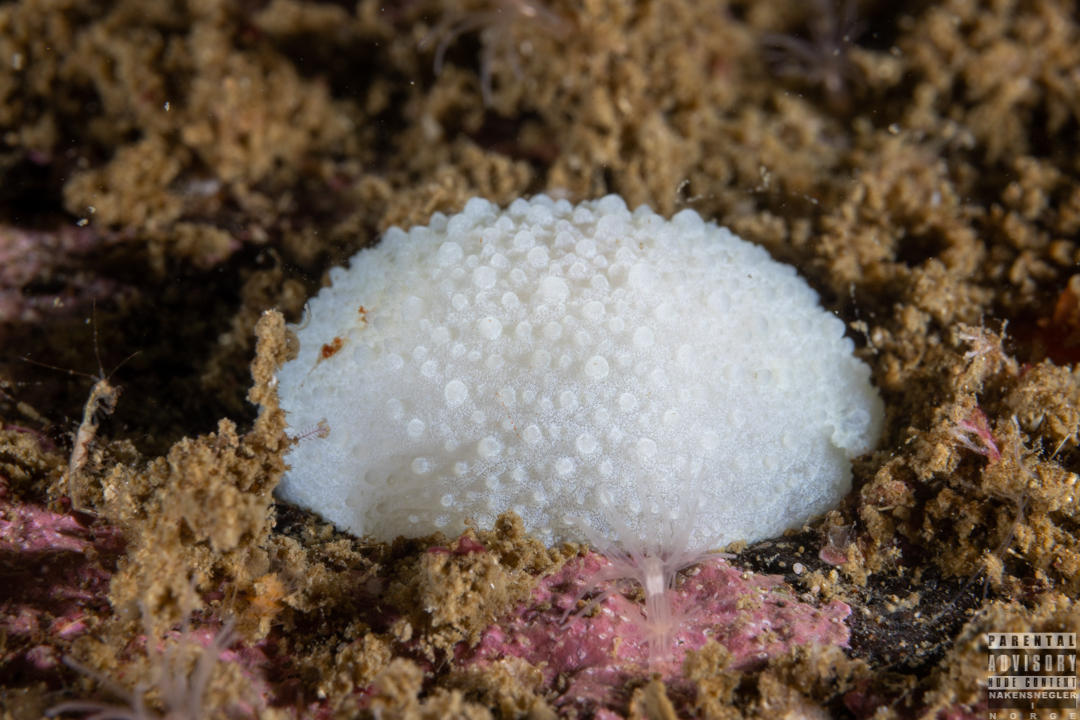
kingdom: Animalia
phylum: Mollusca
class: Gastropoda
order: Nudibranchia
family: Cadlinidae
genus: Aldisa
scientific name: Aldisa zetlandica
